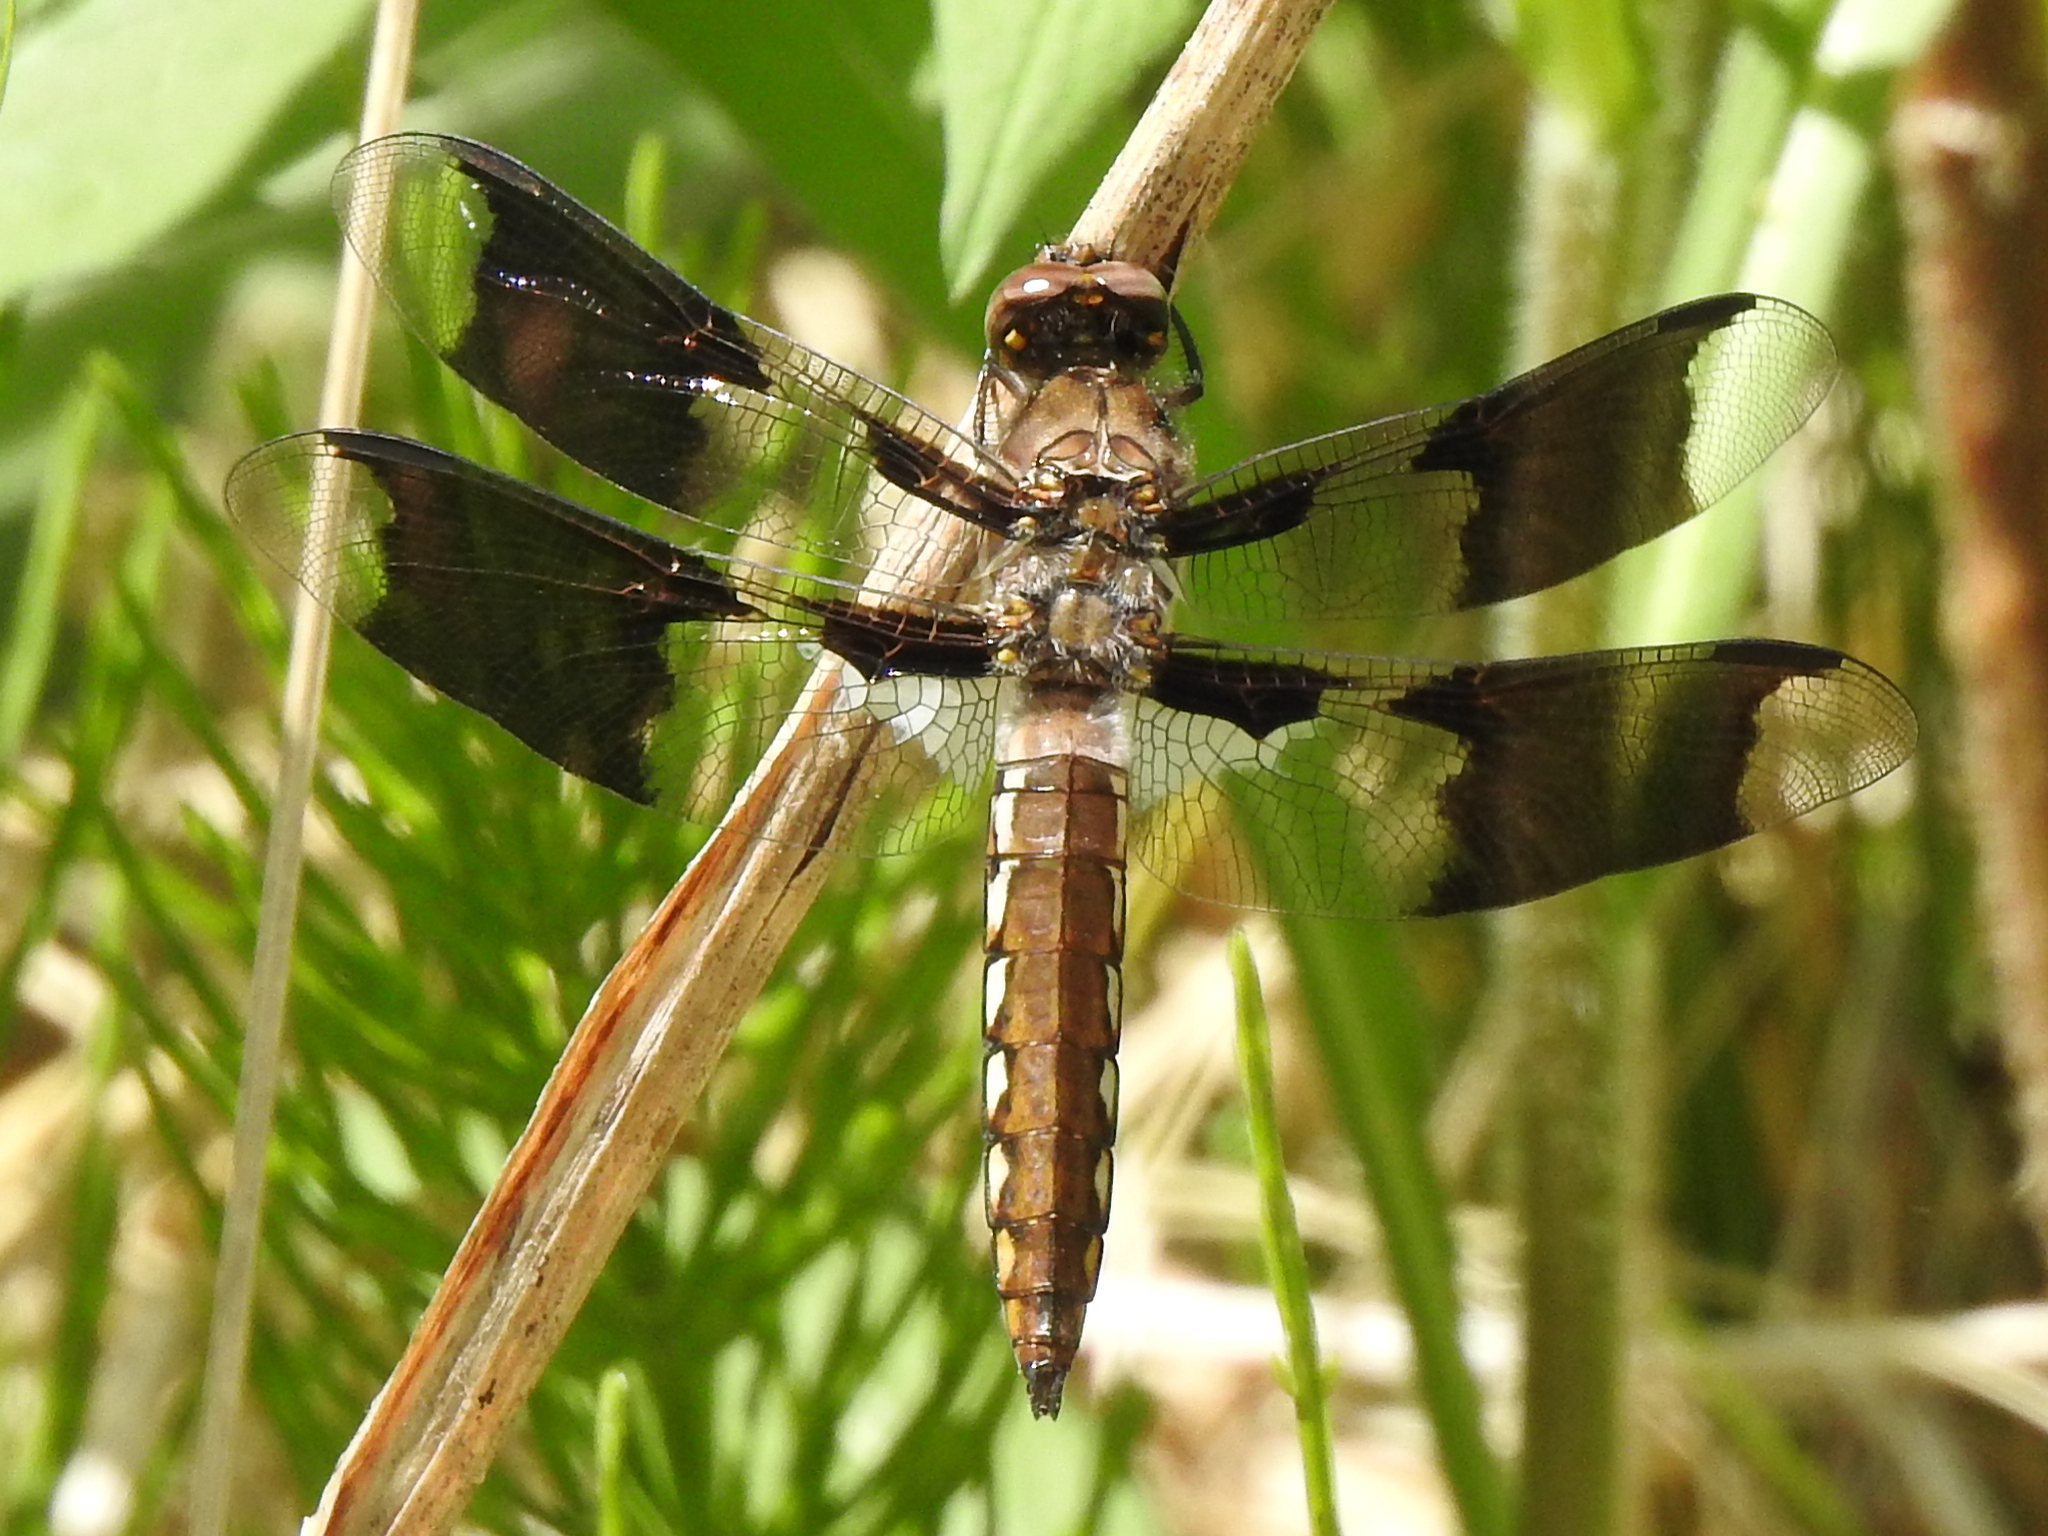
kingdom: Animalia
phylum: Arthropoda
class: Insecta
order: Odonata
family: Libellulidae
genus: Plathemis
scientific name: Plathemis lydia
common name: Common whitetail
